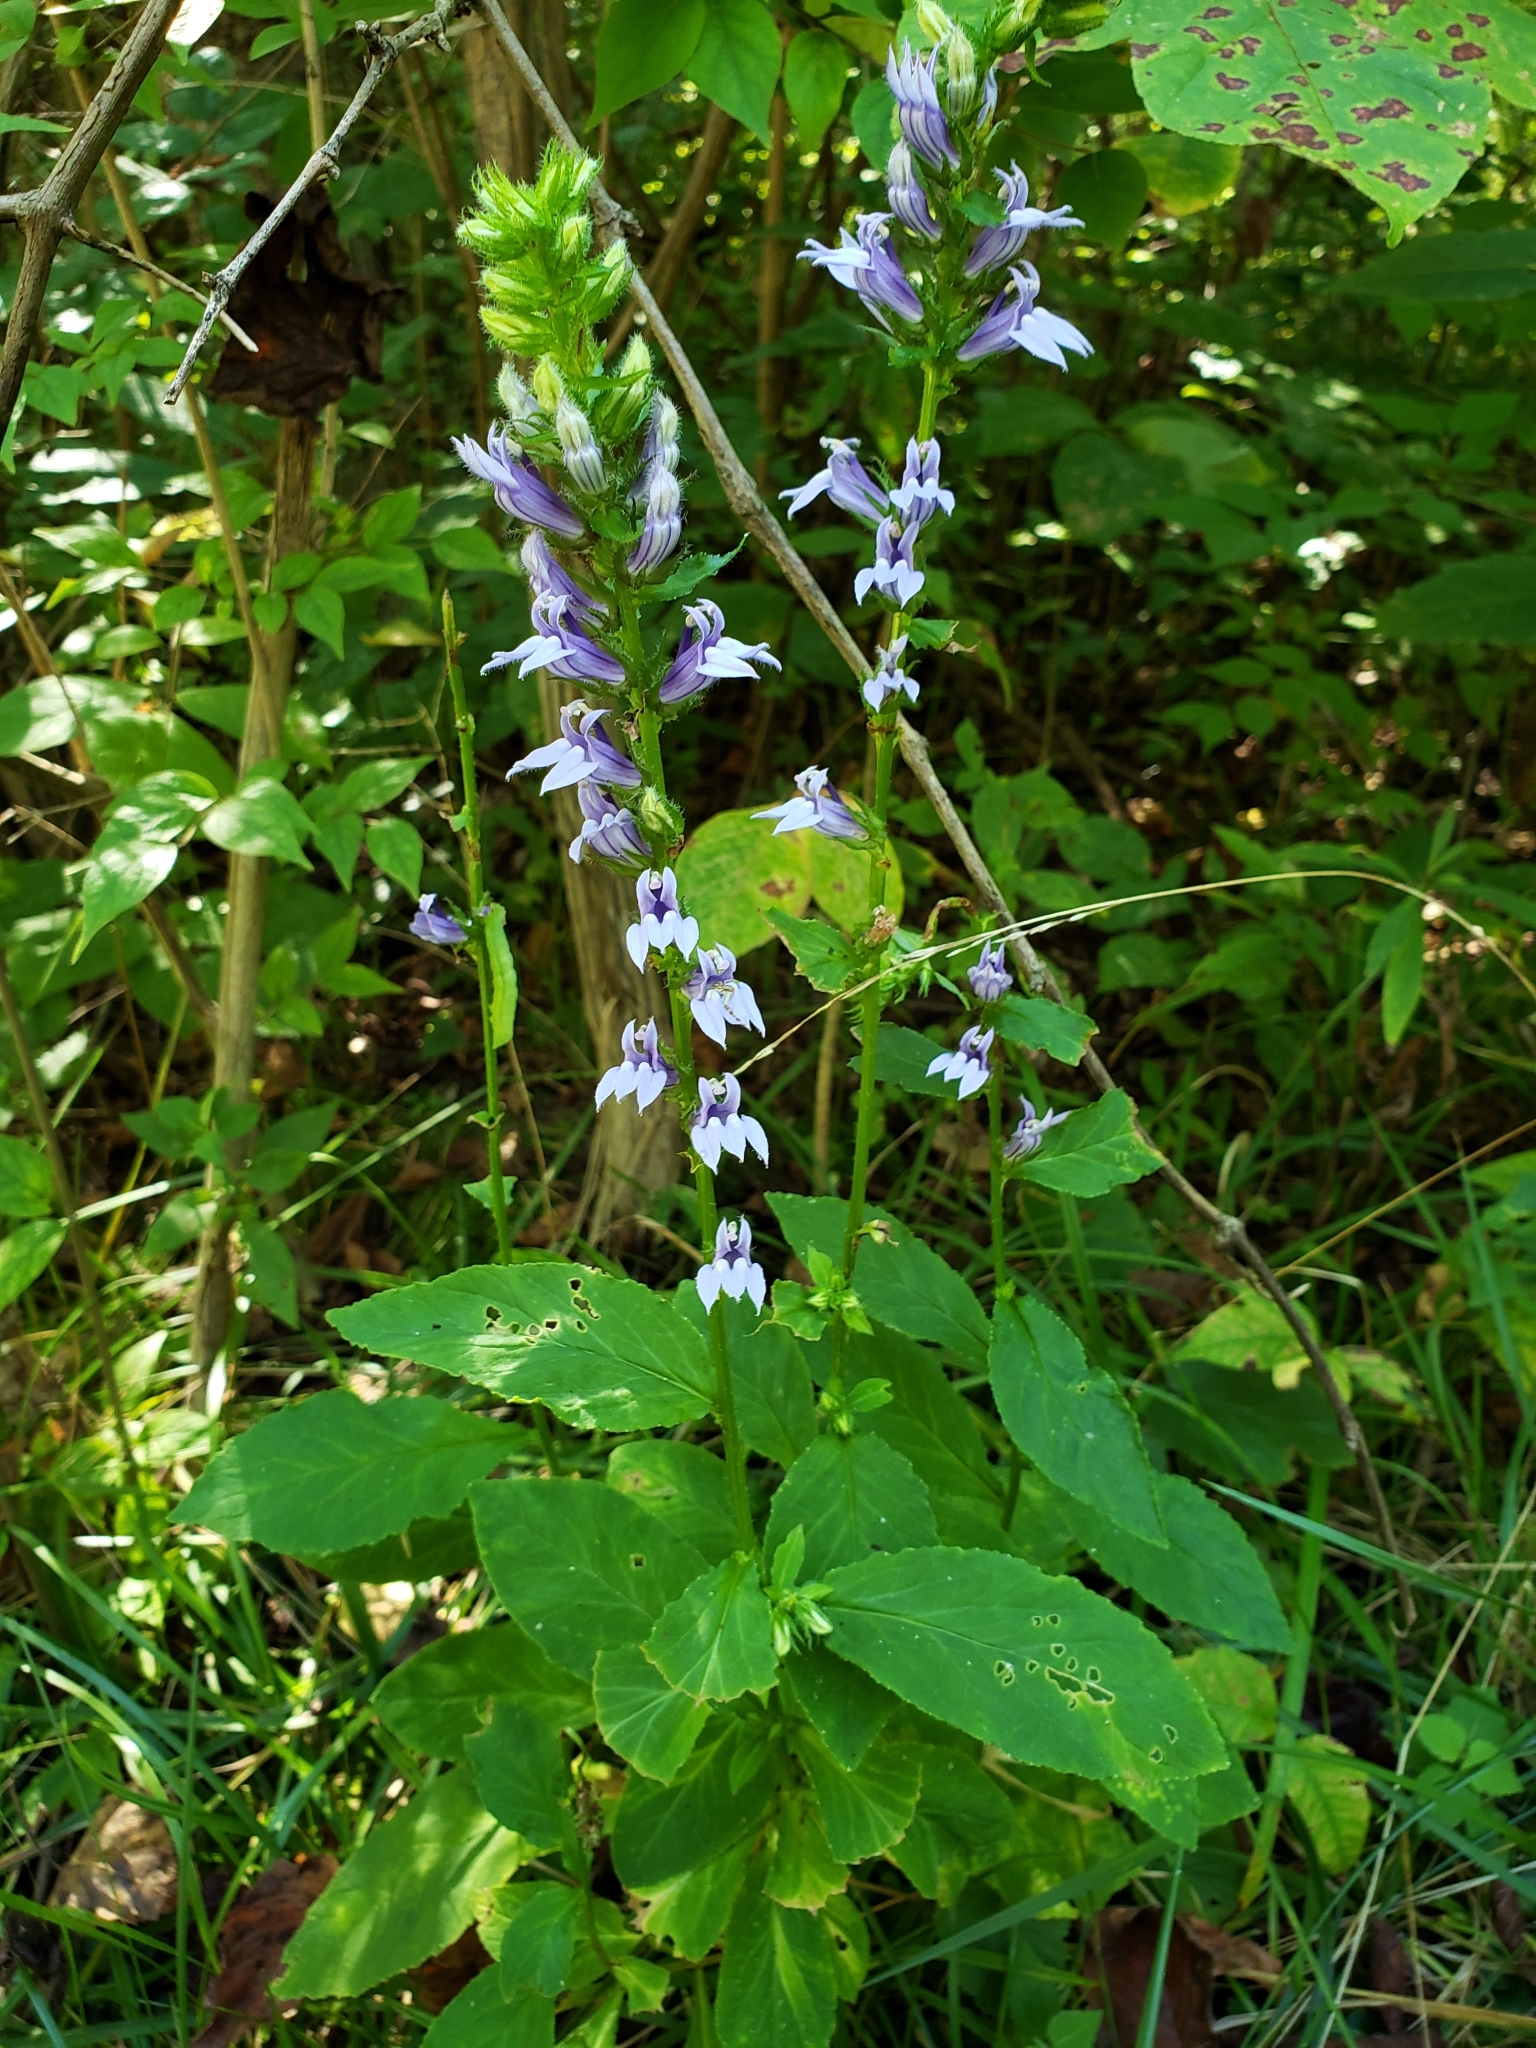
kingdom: Plantae
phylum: Tracheophyta
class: Magnoliopsida
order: Asterales
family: Campanulaceae
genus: Lobelia
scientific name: Lobelia siphilitica
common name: Great lobelia
